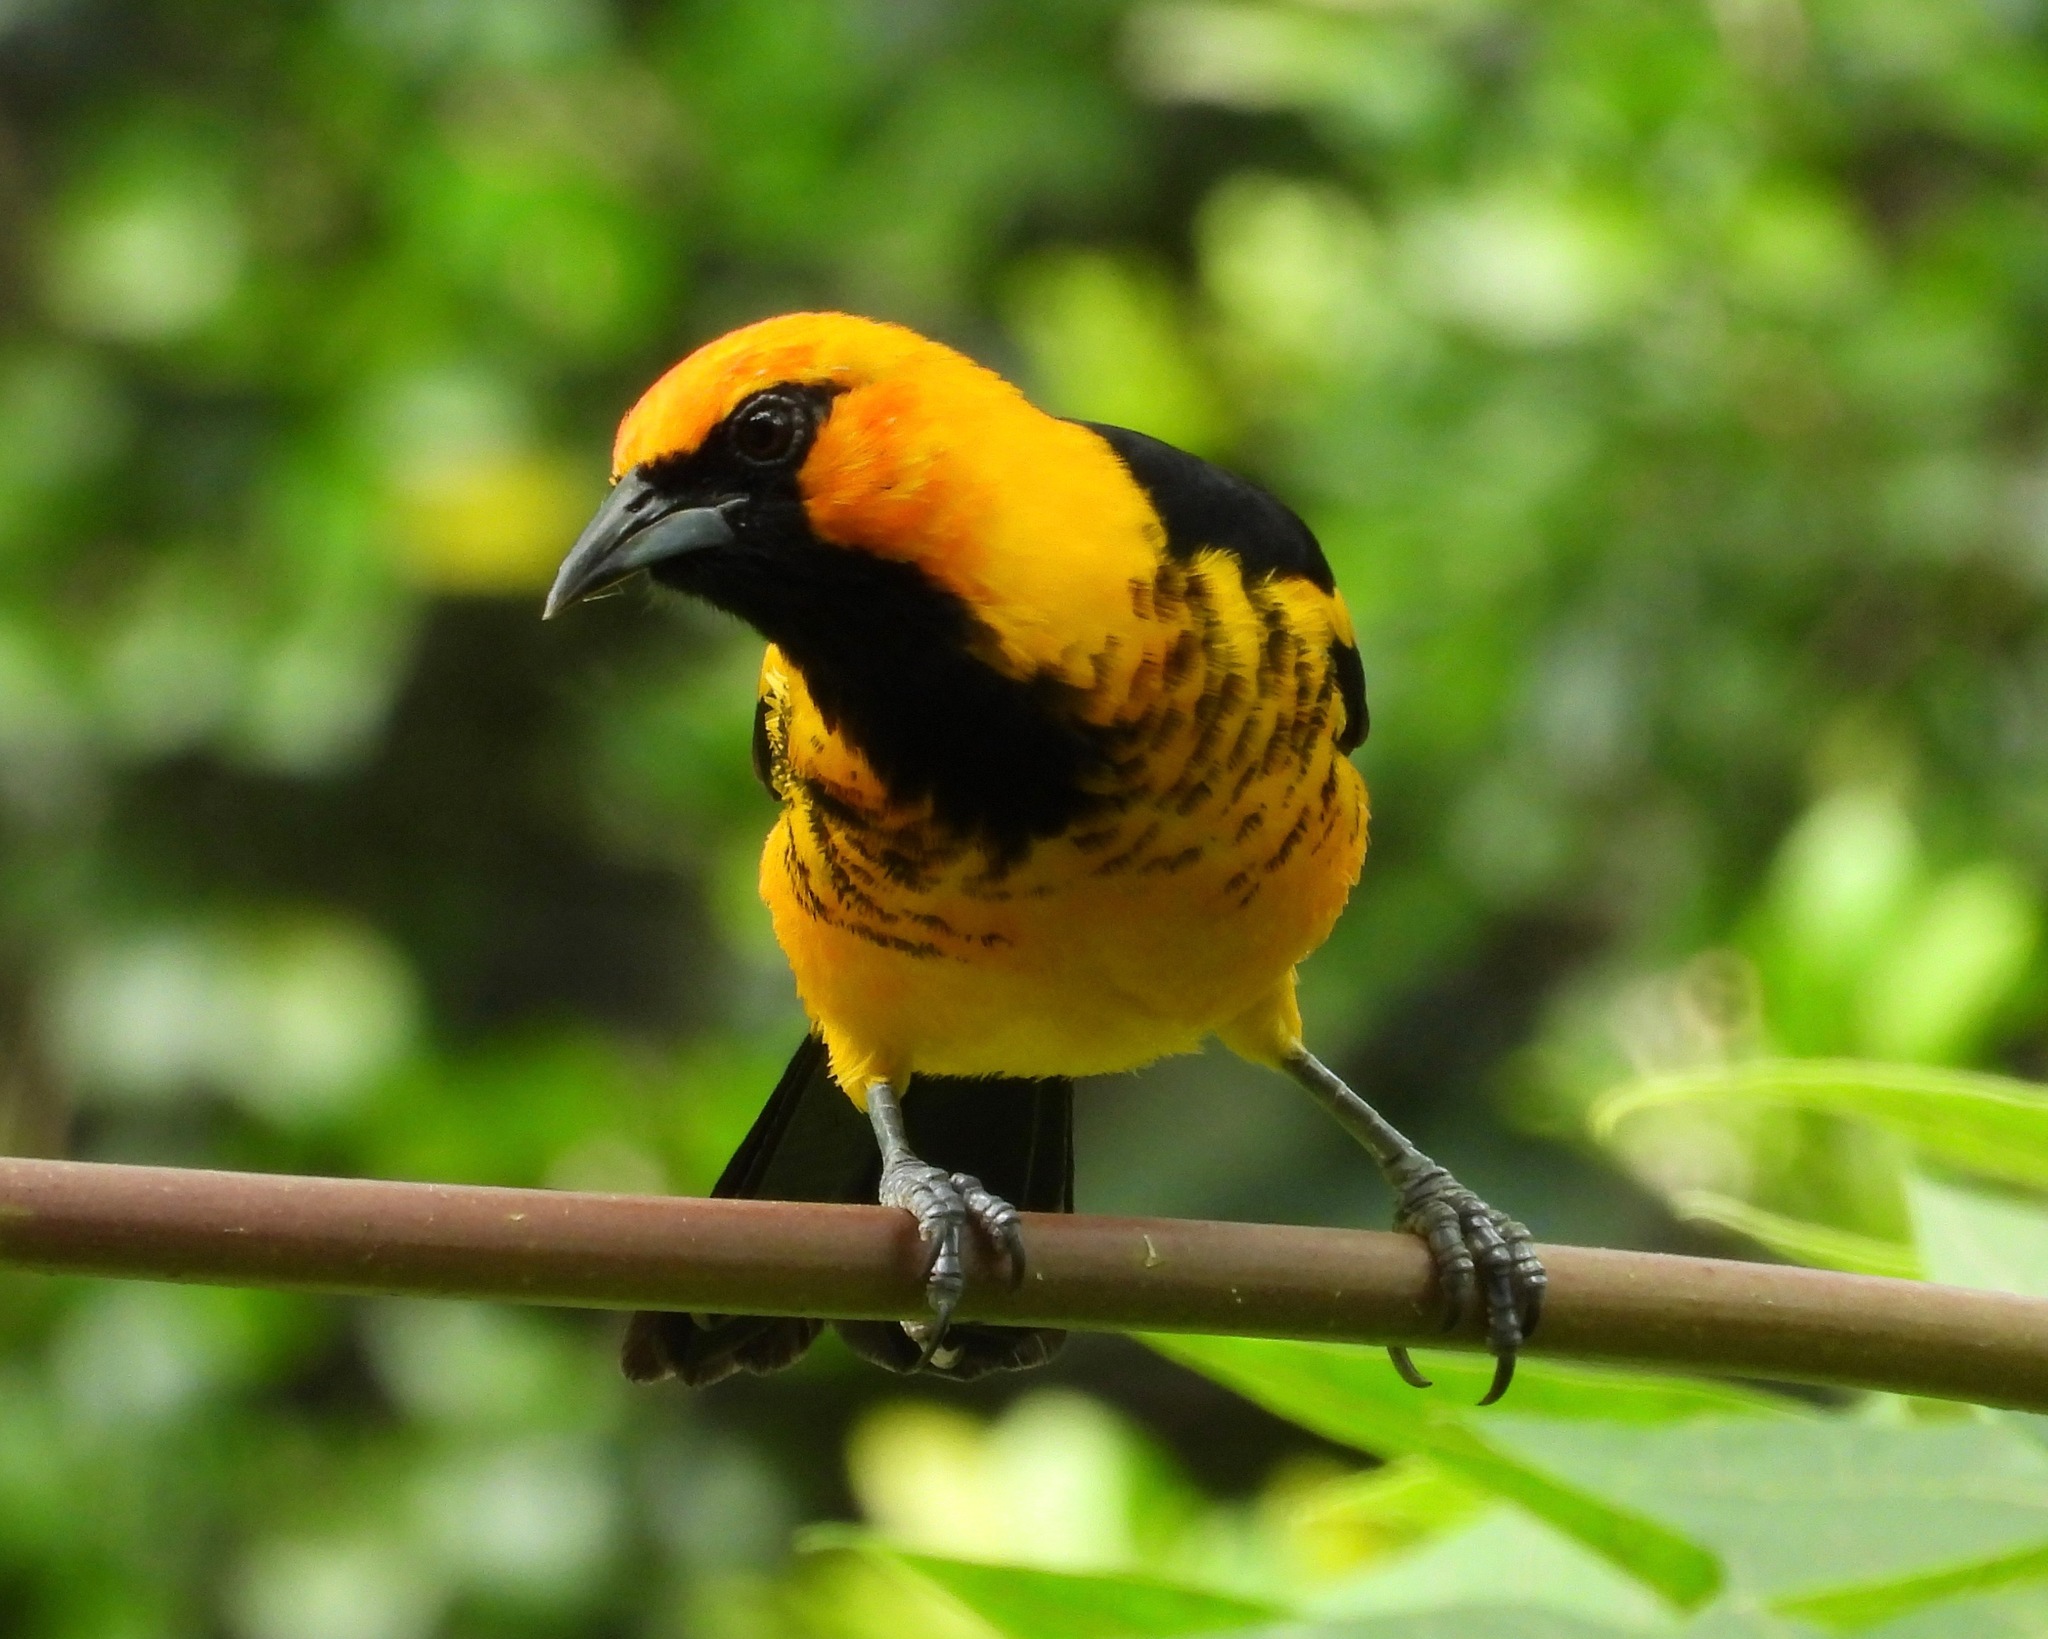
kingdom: Animalia
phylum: Chordata
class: Aves
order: Passeriformes
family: Icteridae
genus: Icterus
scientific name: Icterus pectoralis
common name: Spot-breasted oriole
